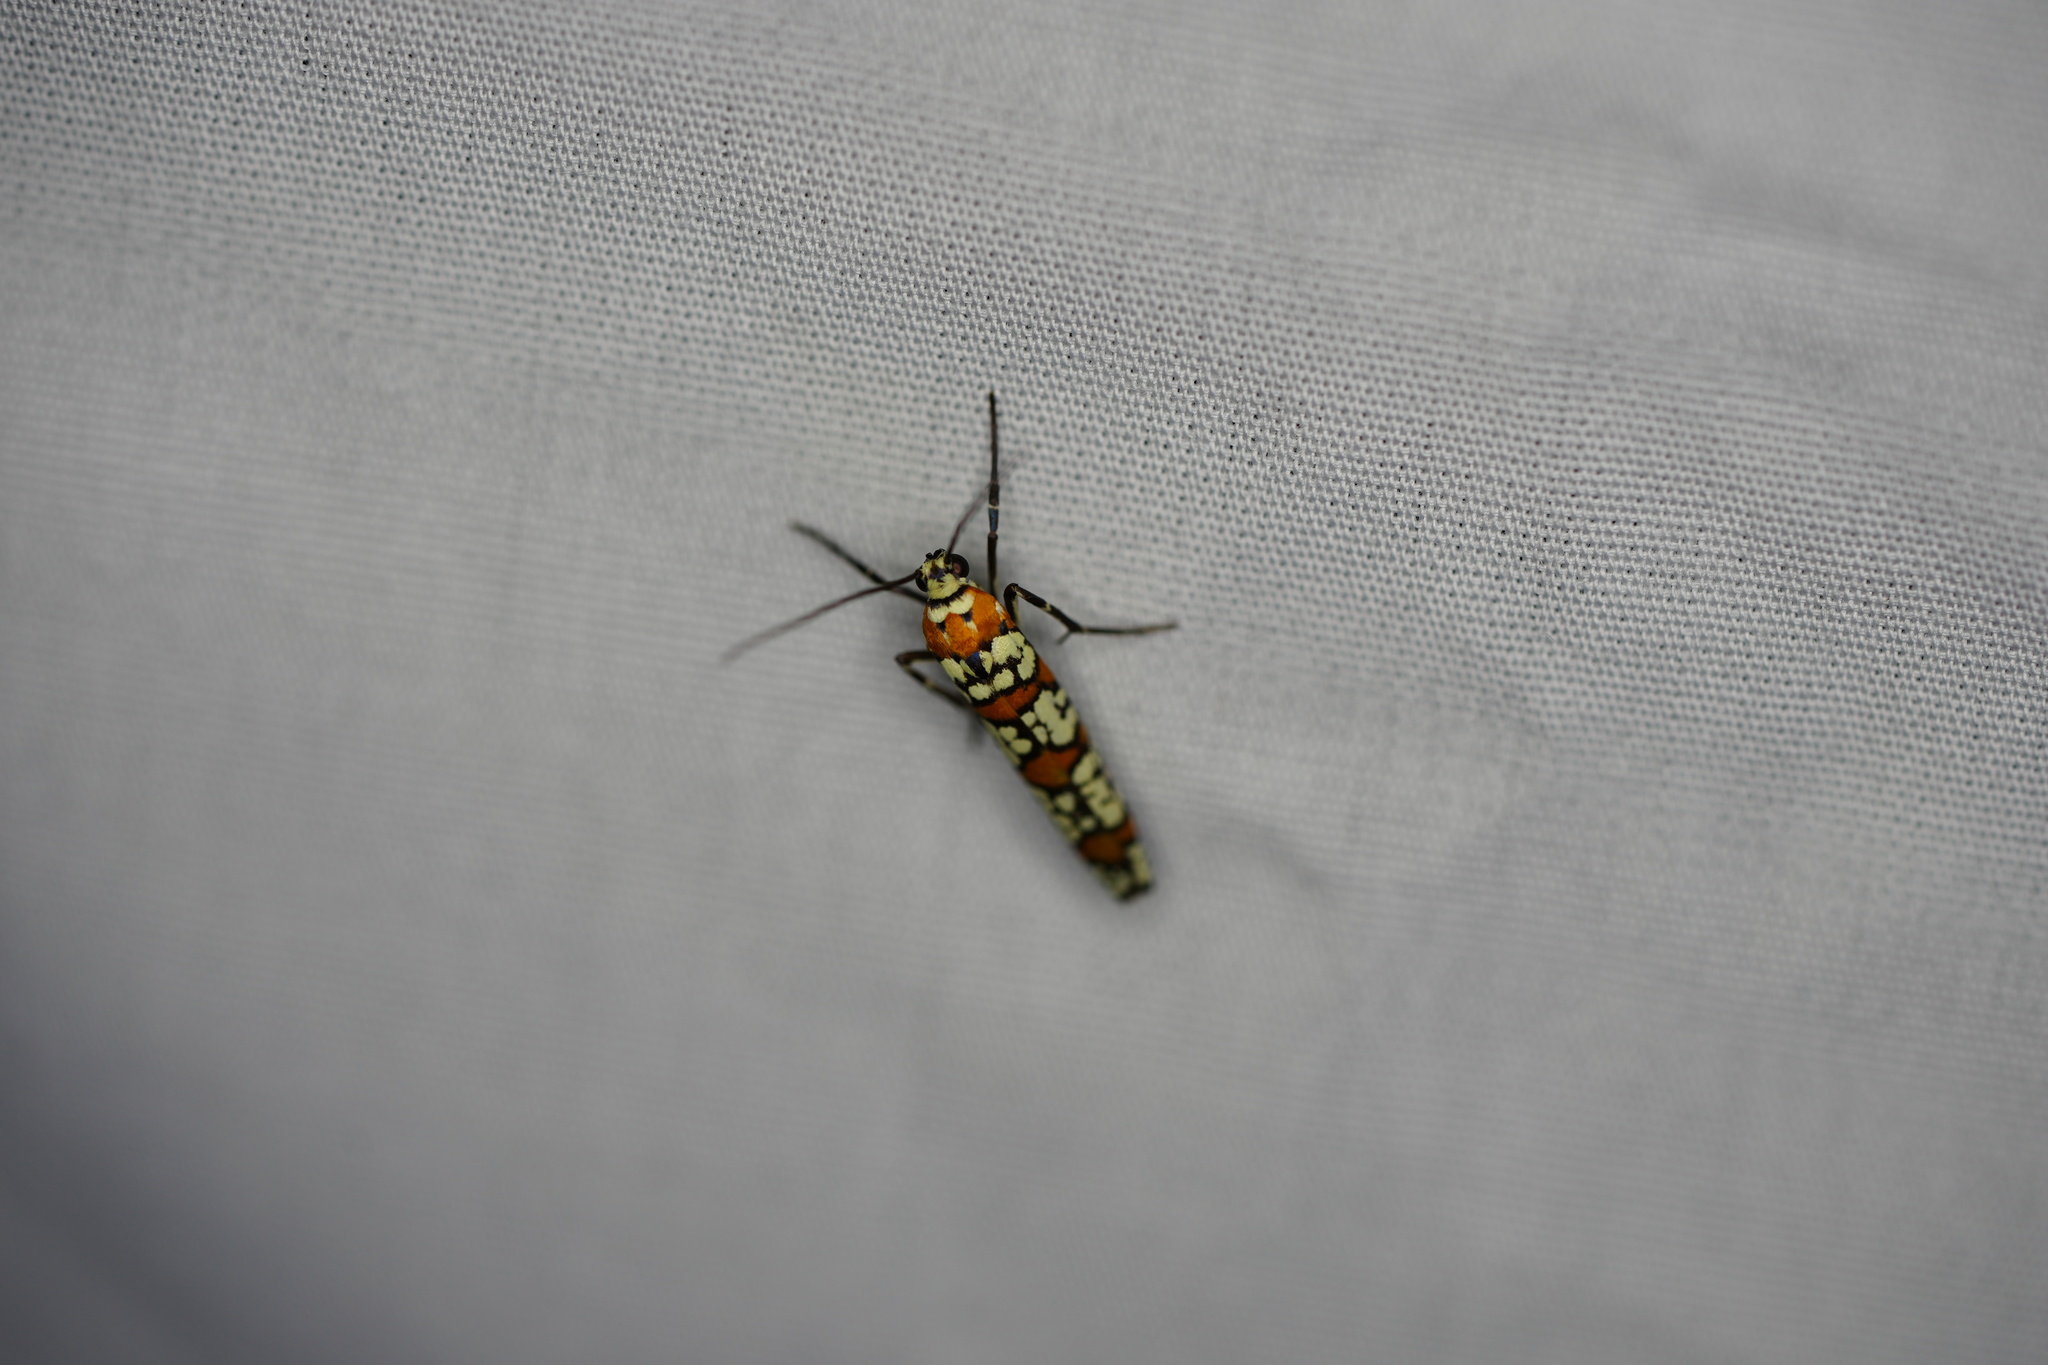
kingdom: Animalia
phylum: Arthropoda
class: Insecta
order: Lepidoptera
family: Attevidae
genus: Atteva
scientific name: Atteva punctella
